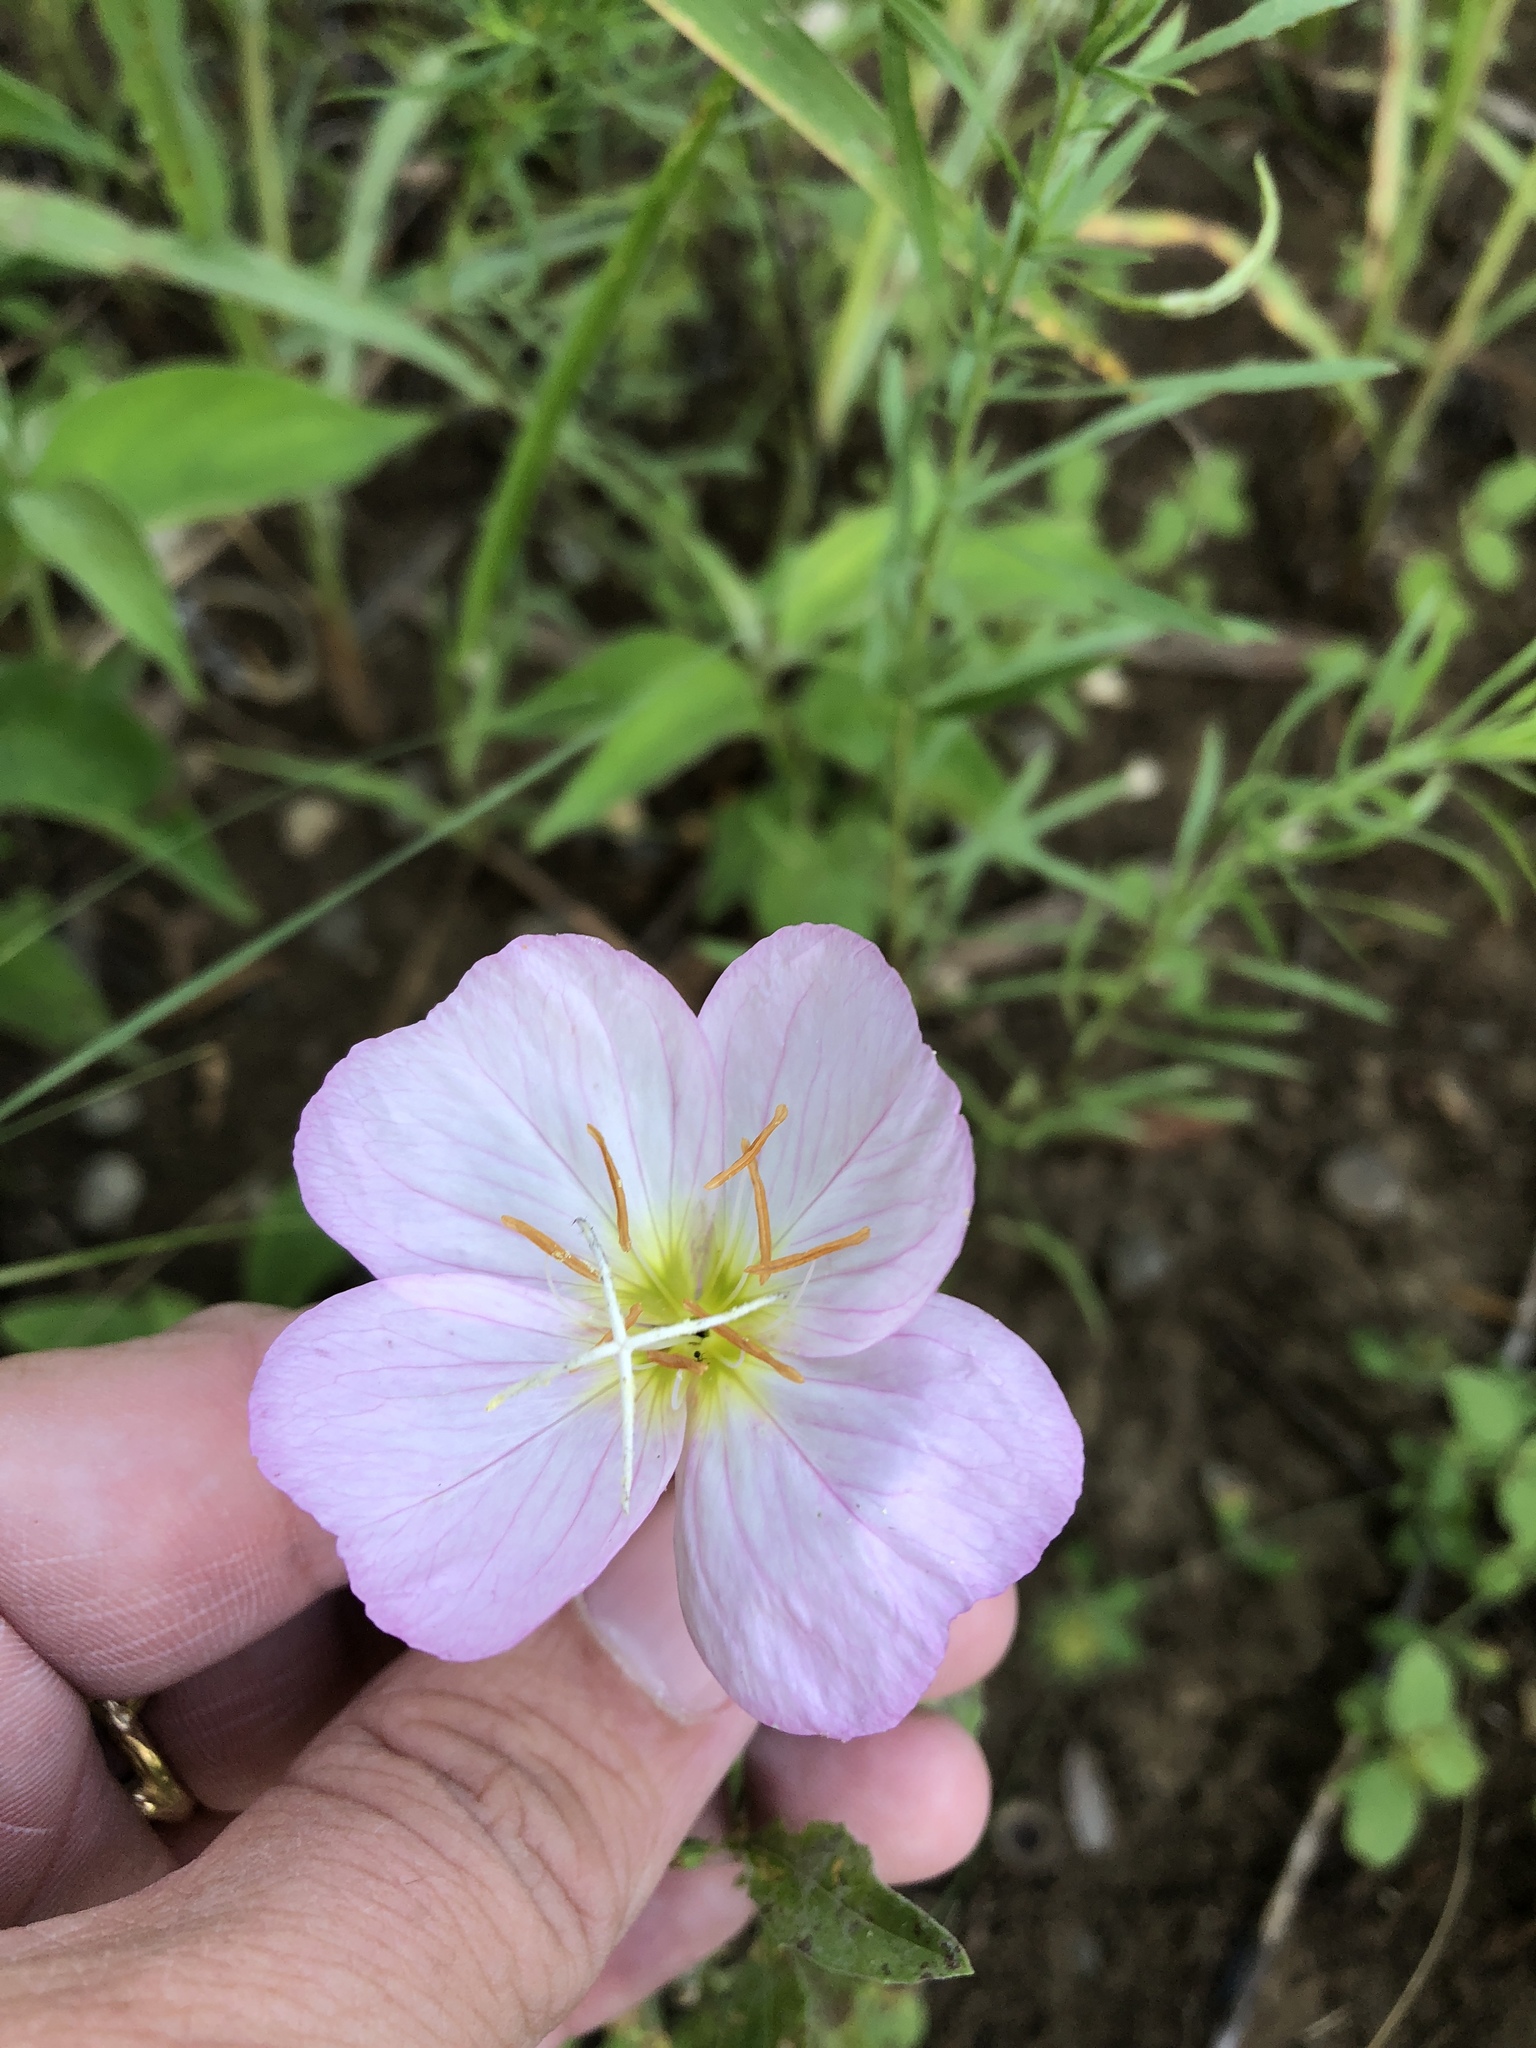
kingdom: Plantae
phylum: Tracheophyta
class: Magnoliopsida
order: Myrtales
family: Onagraceae
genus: Oenothera
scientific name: Oenothera speciosa
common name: White evening-primrose
